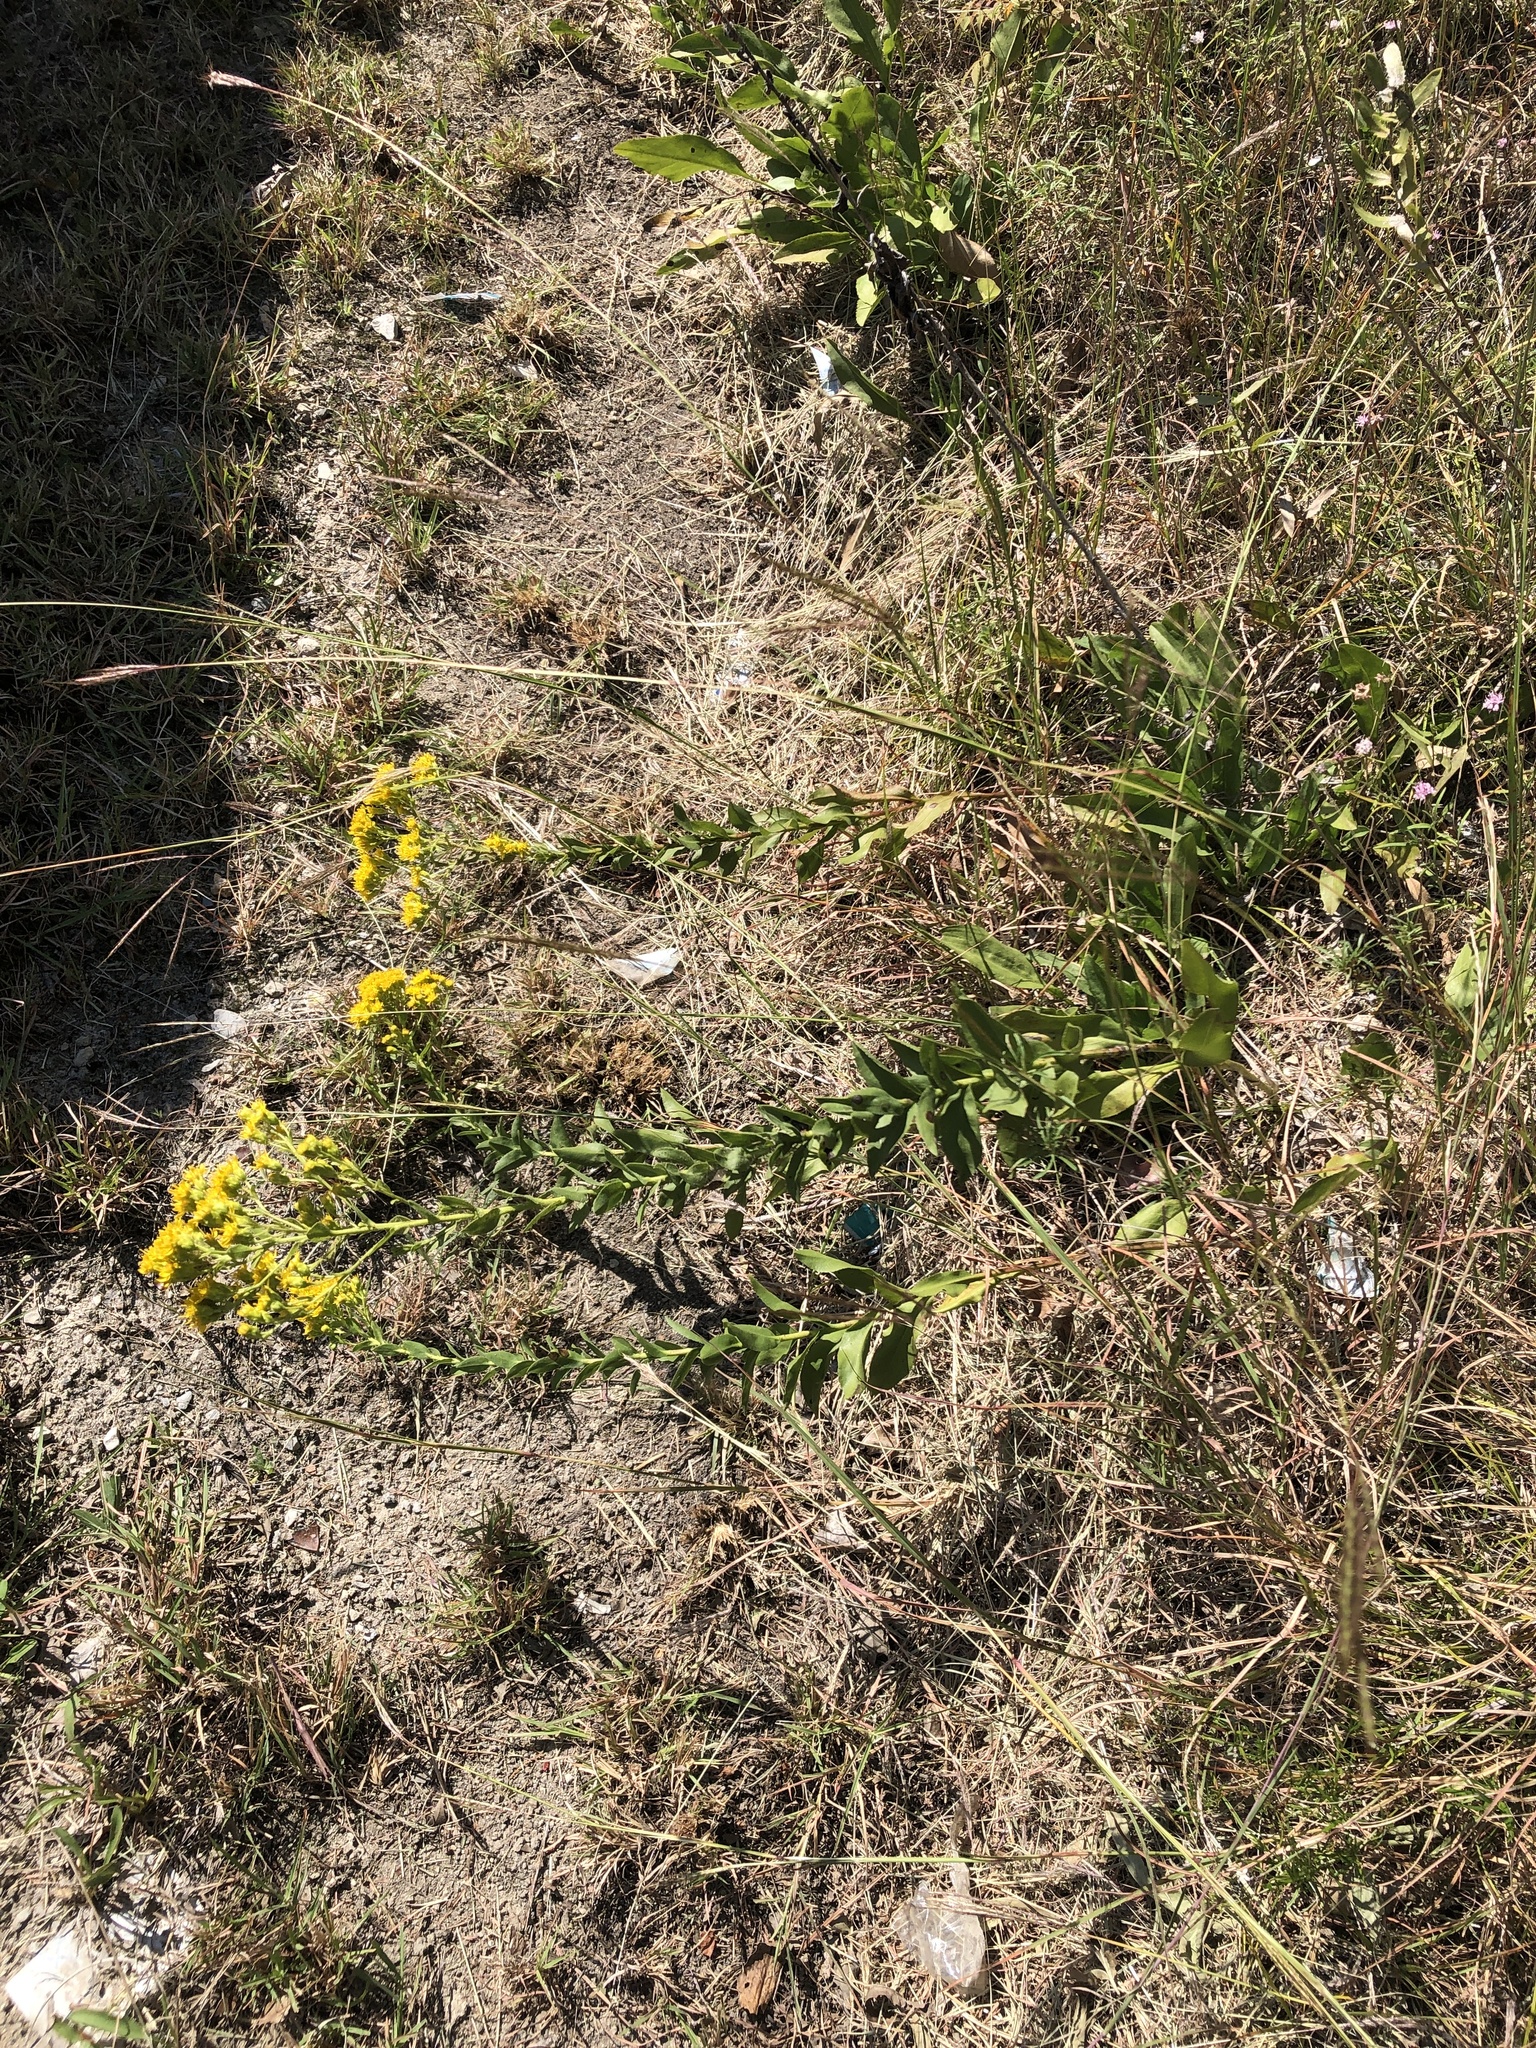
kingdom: Plantae
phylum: Tracheophyta
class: Magnoliopsida
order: Asterales
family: Asteraceae
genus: Solidago
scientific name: Solidago rigida
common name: Rigid goldenrod
